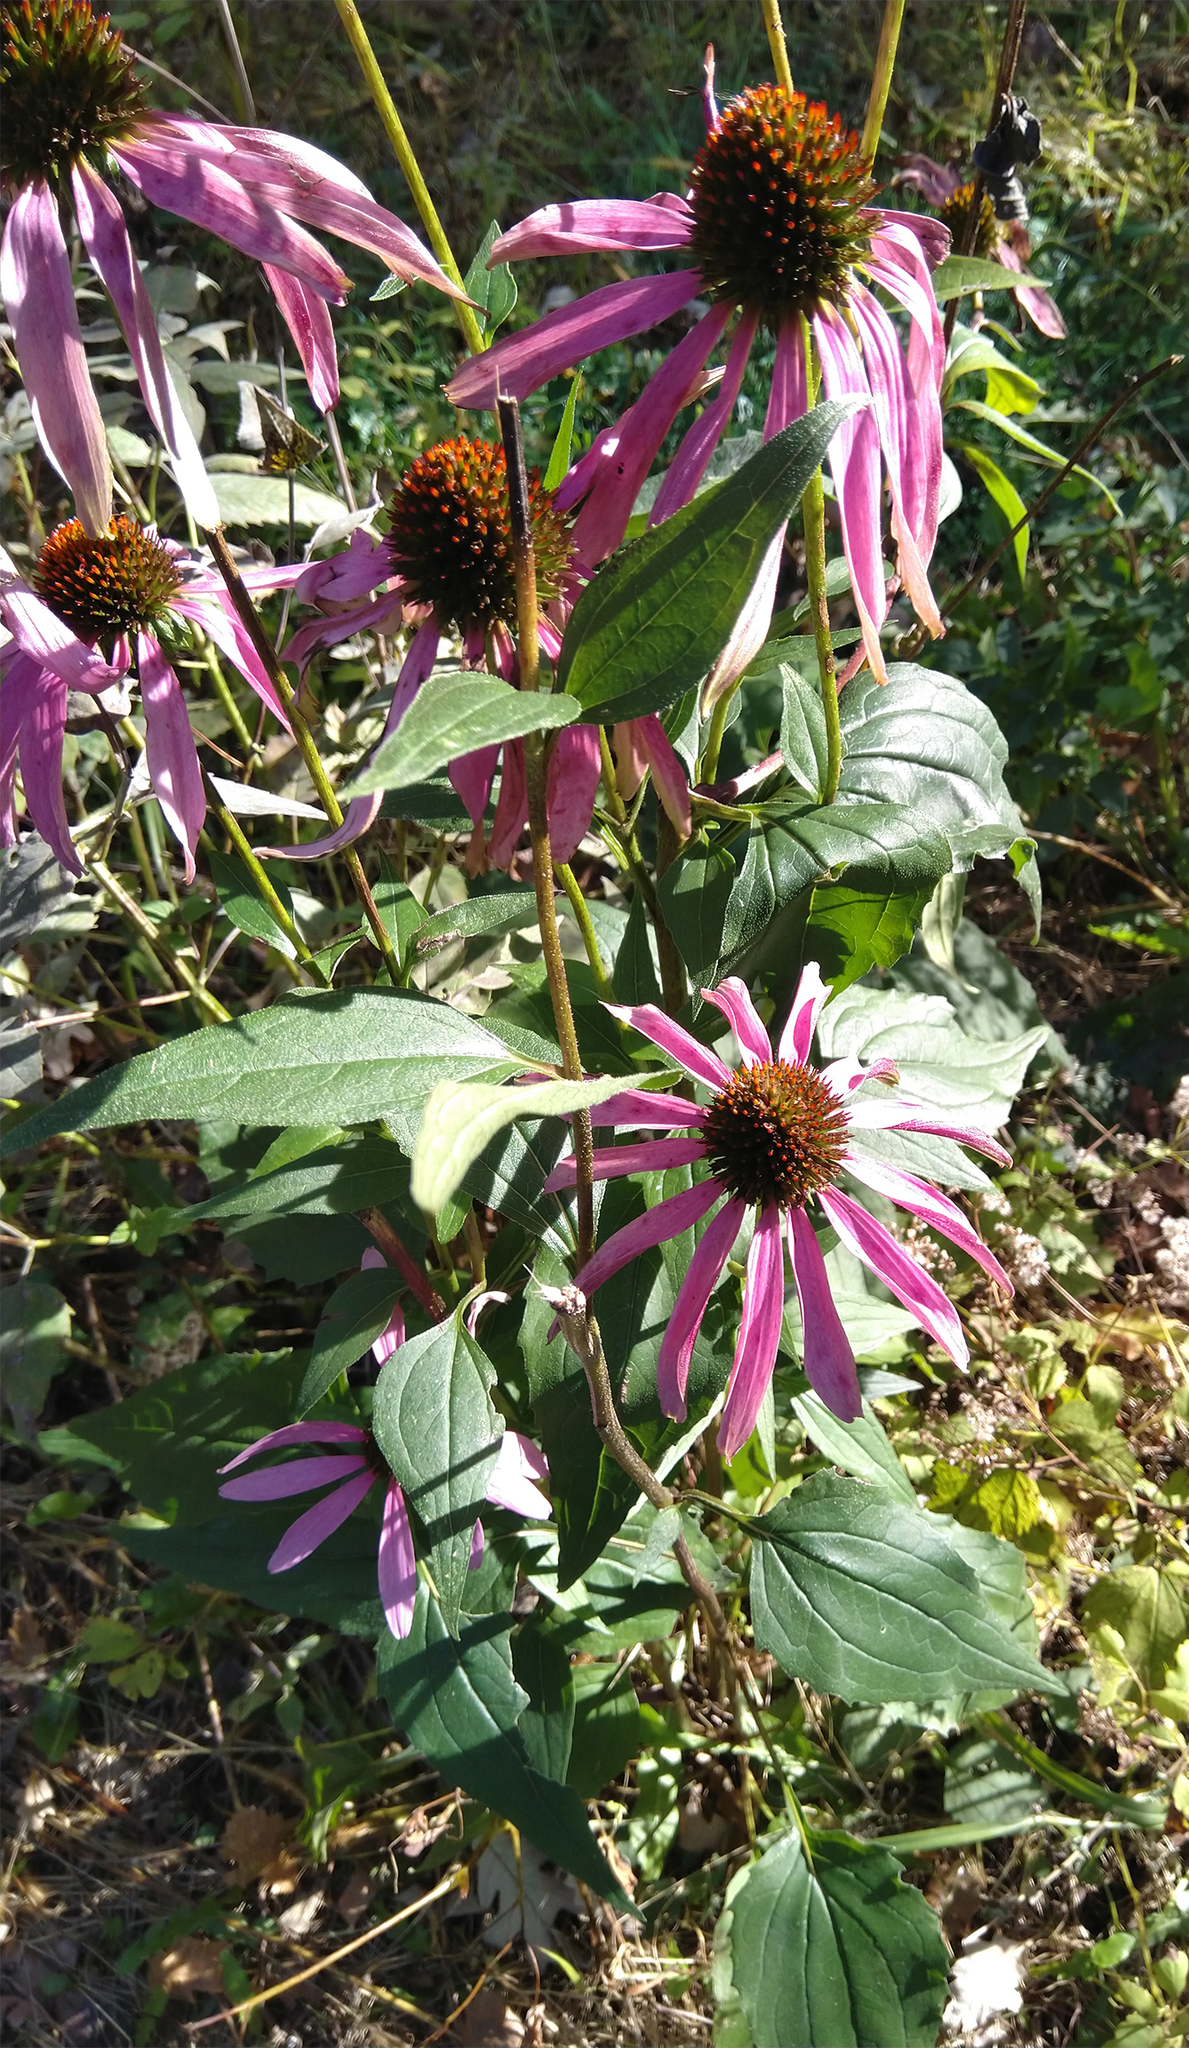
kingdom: Plantae
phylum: Tracheophyta
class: Magnoliopsida
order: Asterales
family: Asteraceae
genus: Echinacea
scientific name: Echinacea purpurea
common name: Broad-leaved purple coneflower
